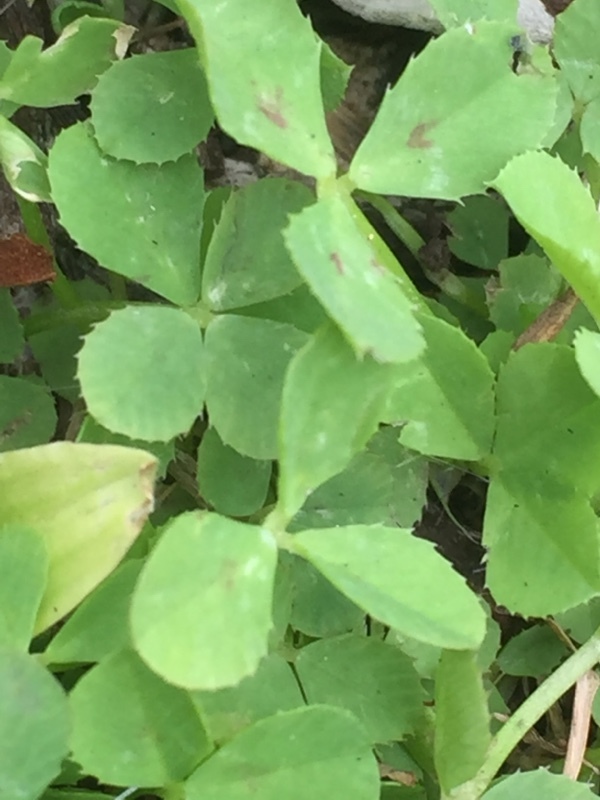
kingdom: Plantae
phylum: Tracheophyta
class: Magnoliopsida
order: Fabales
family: Fabaceae
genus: Medicago
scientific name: Medicago arabica
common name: Spotted medick
